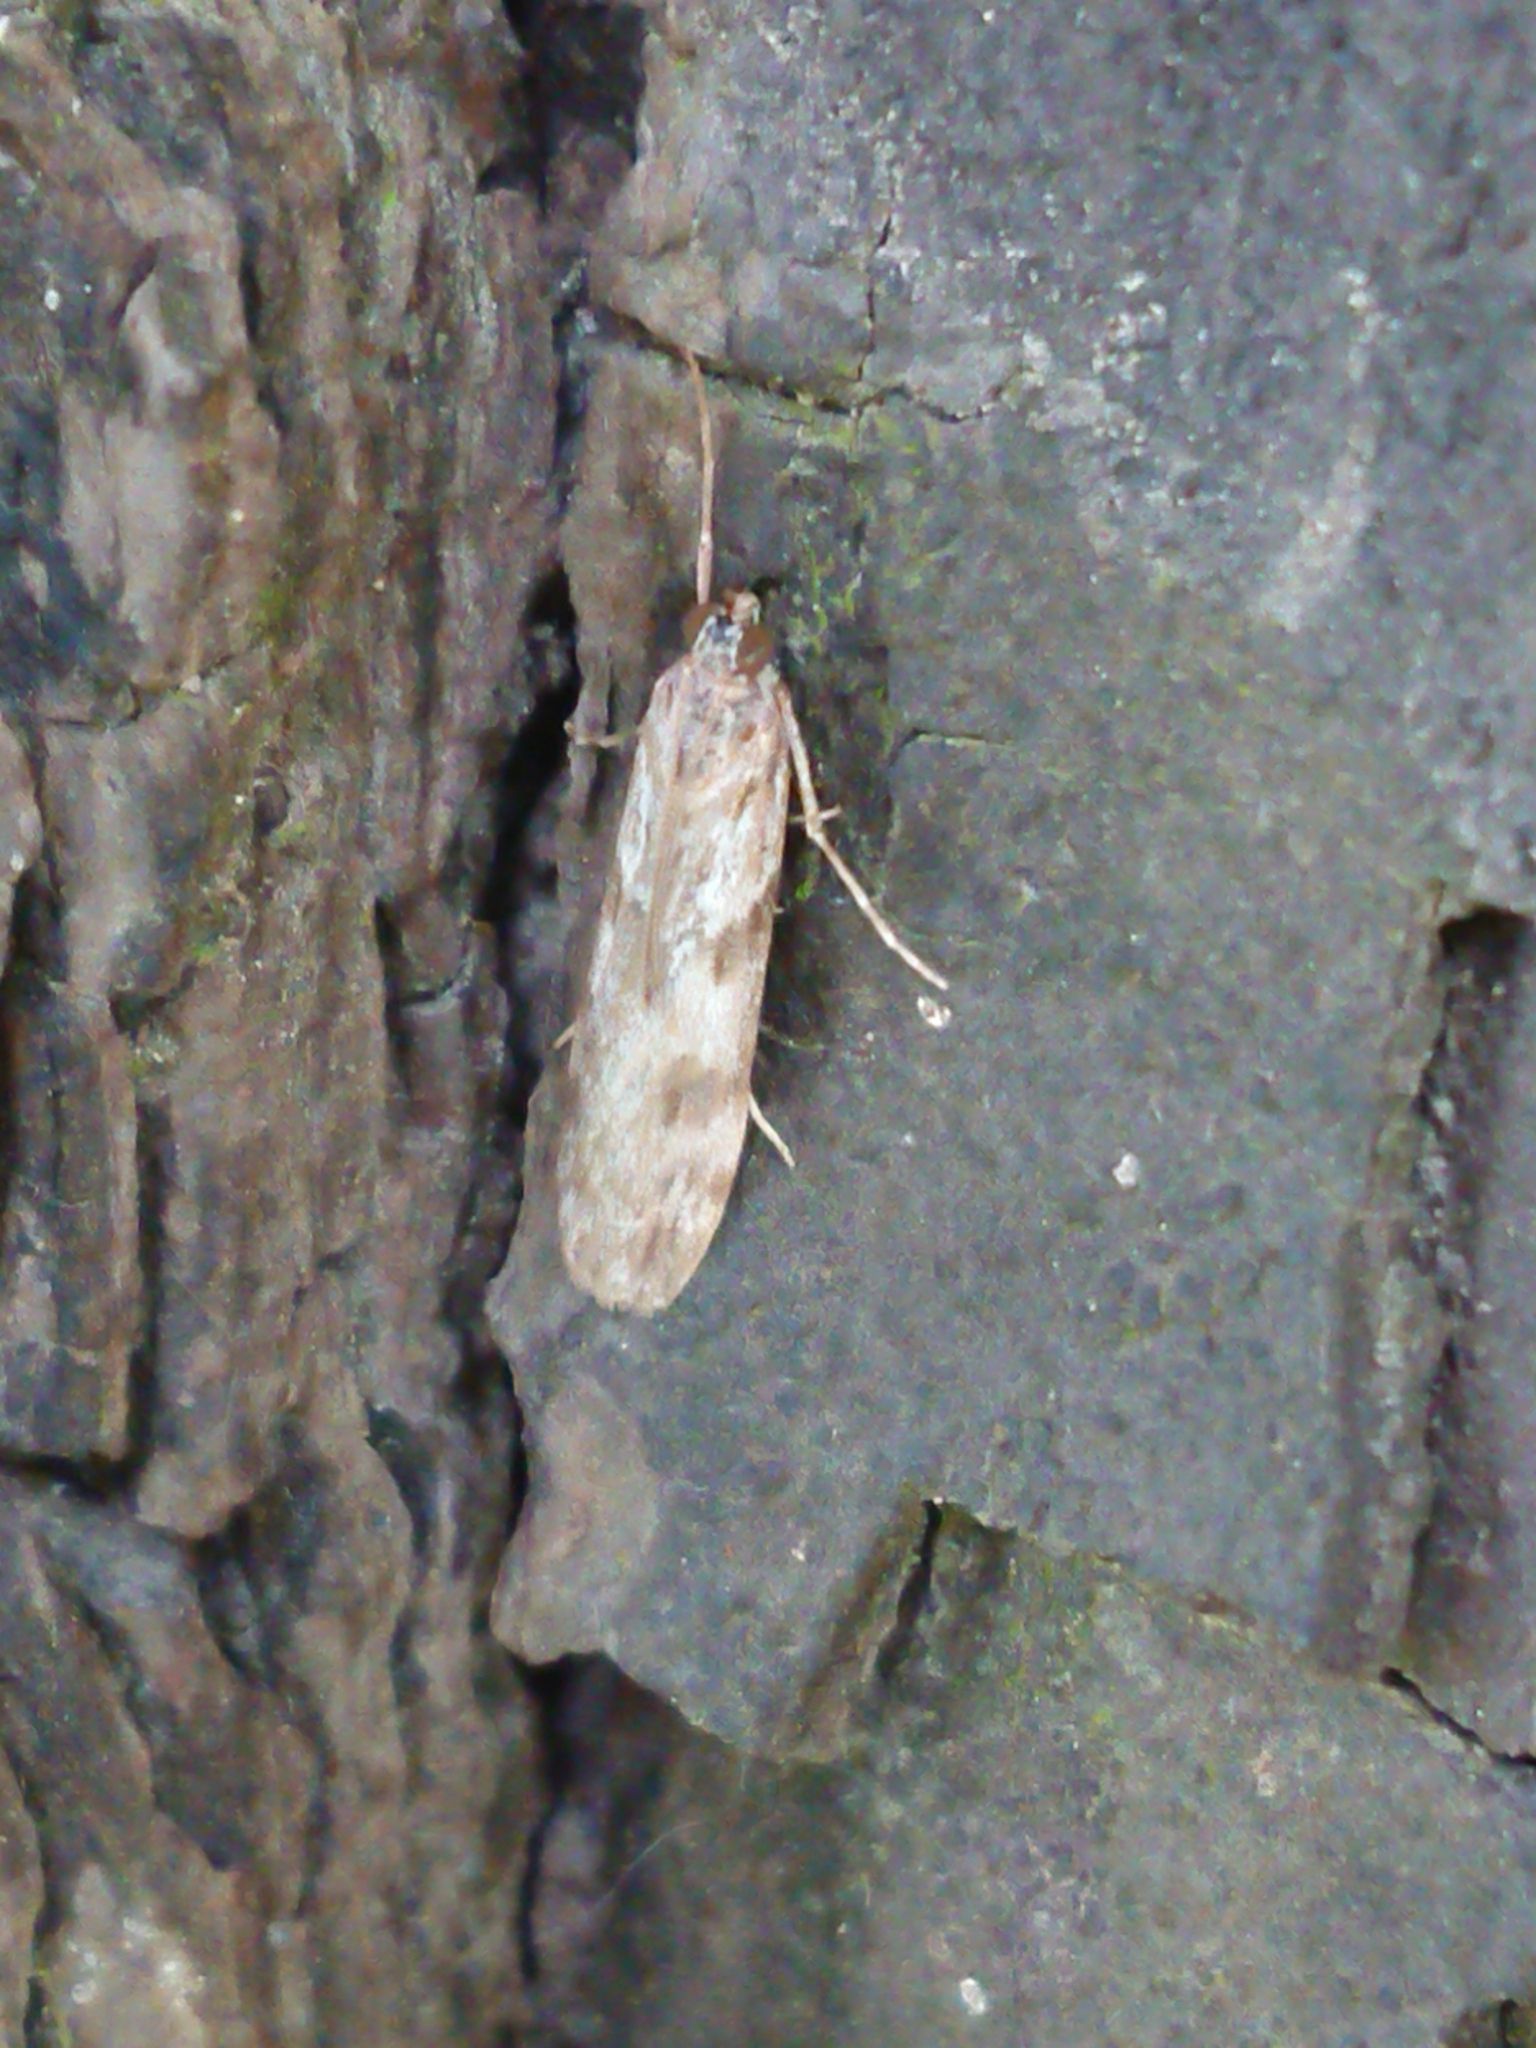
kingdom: Animalia
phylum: Arthropoda
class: Insecta
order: Lepidoptera
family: Crambidae
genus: Scoparia
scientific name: Scoparia halopis
